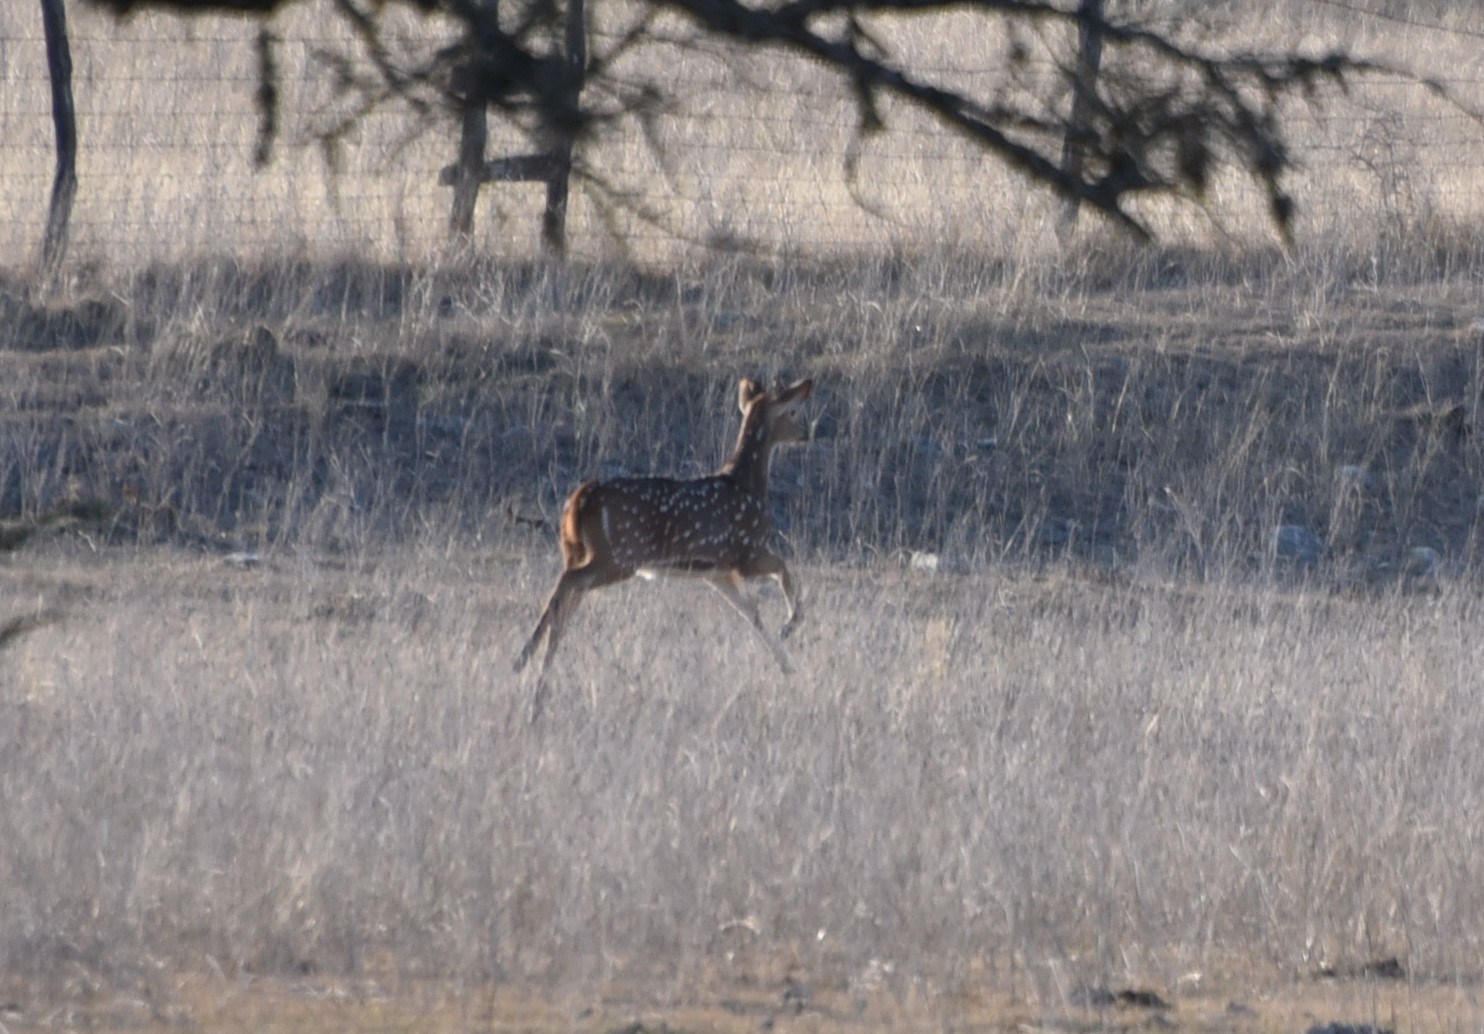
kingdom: Animalia
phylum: Chordata
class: Mammalia
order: Artiodactyla
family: Cervidae
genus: Axis
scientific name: Axis axis
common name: Chital
